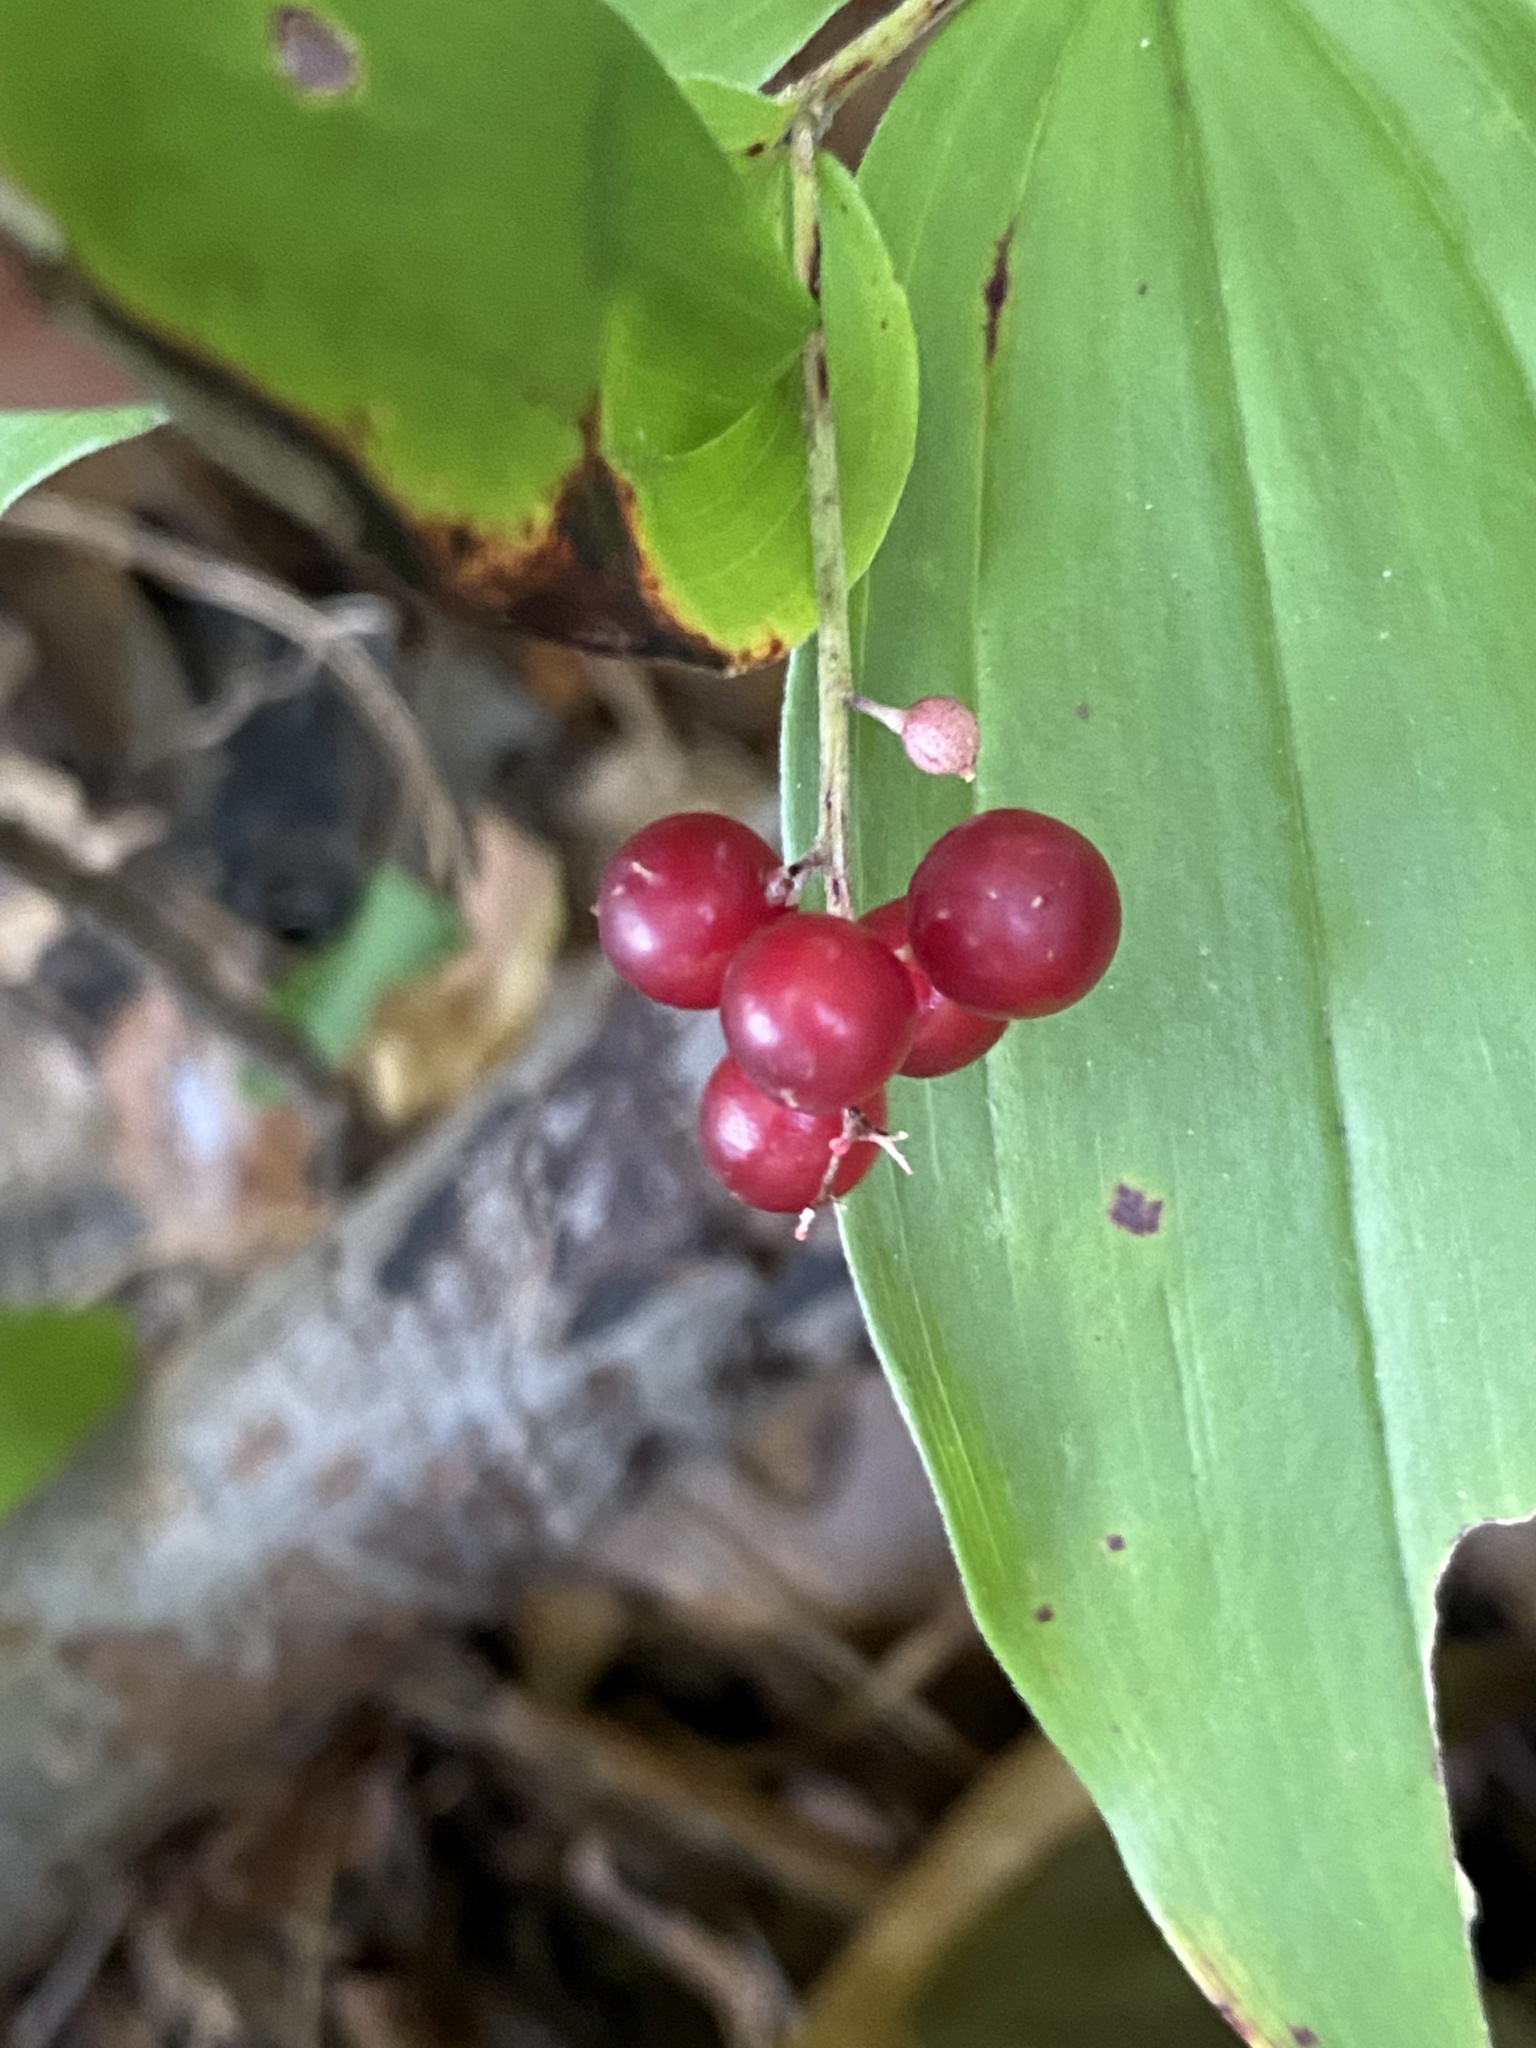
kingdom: Plantae
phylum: Tracheophyta
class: Liliopsida
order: Asparagales
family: Asparagaceae
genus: Maianthemum
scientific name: Maianthemum racemosum
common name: False spikenard
